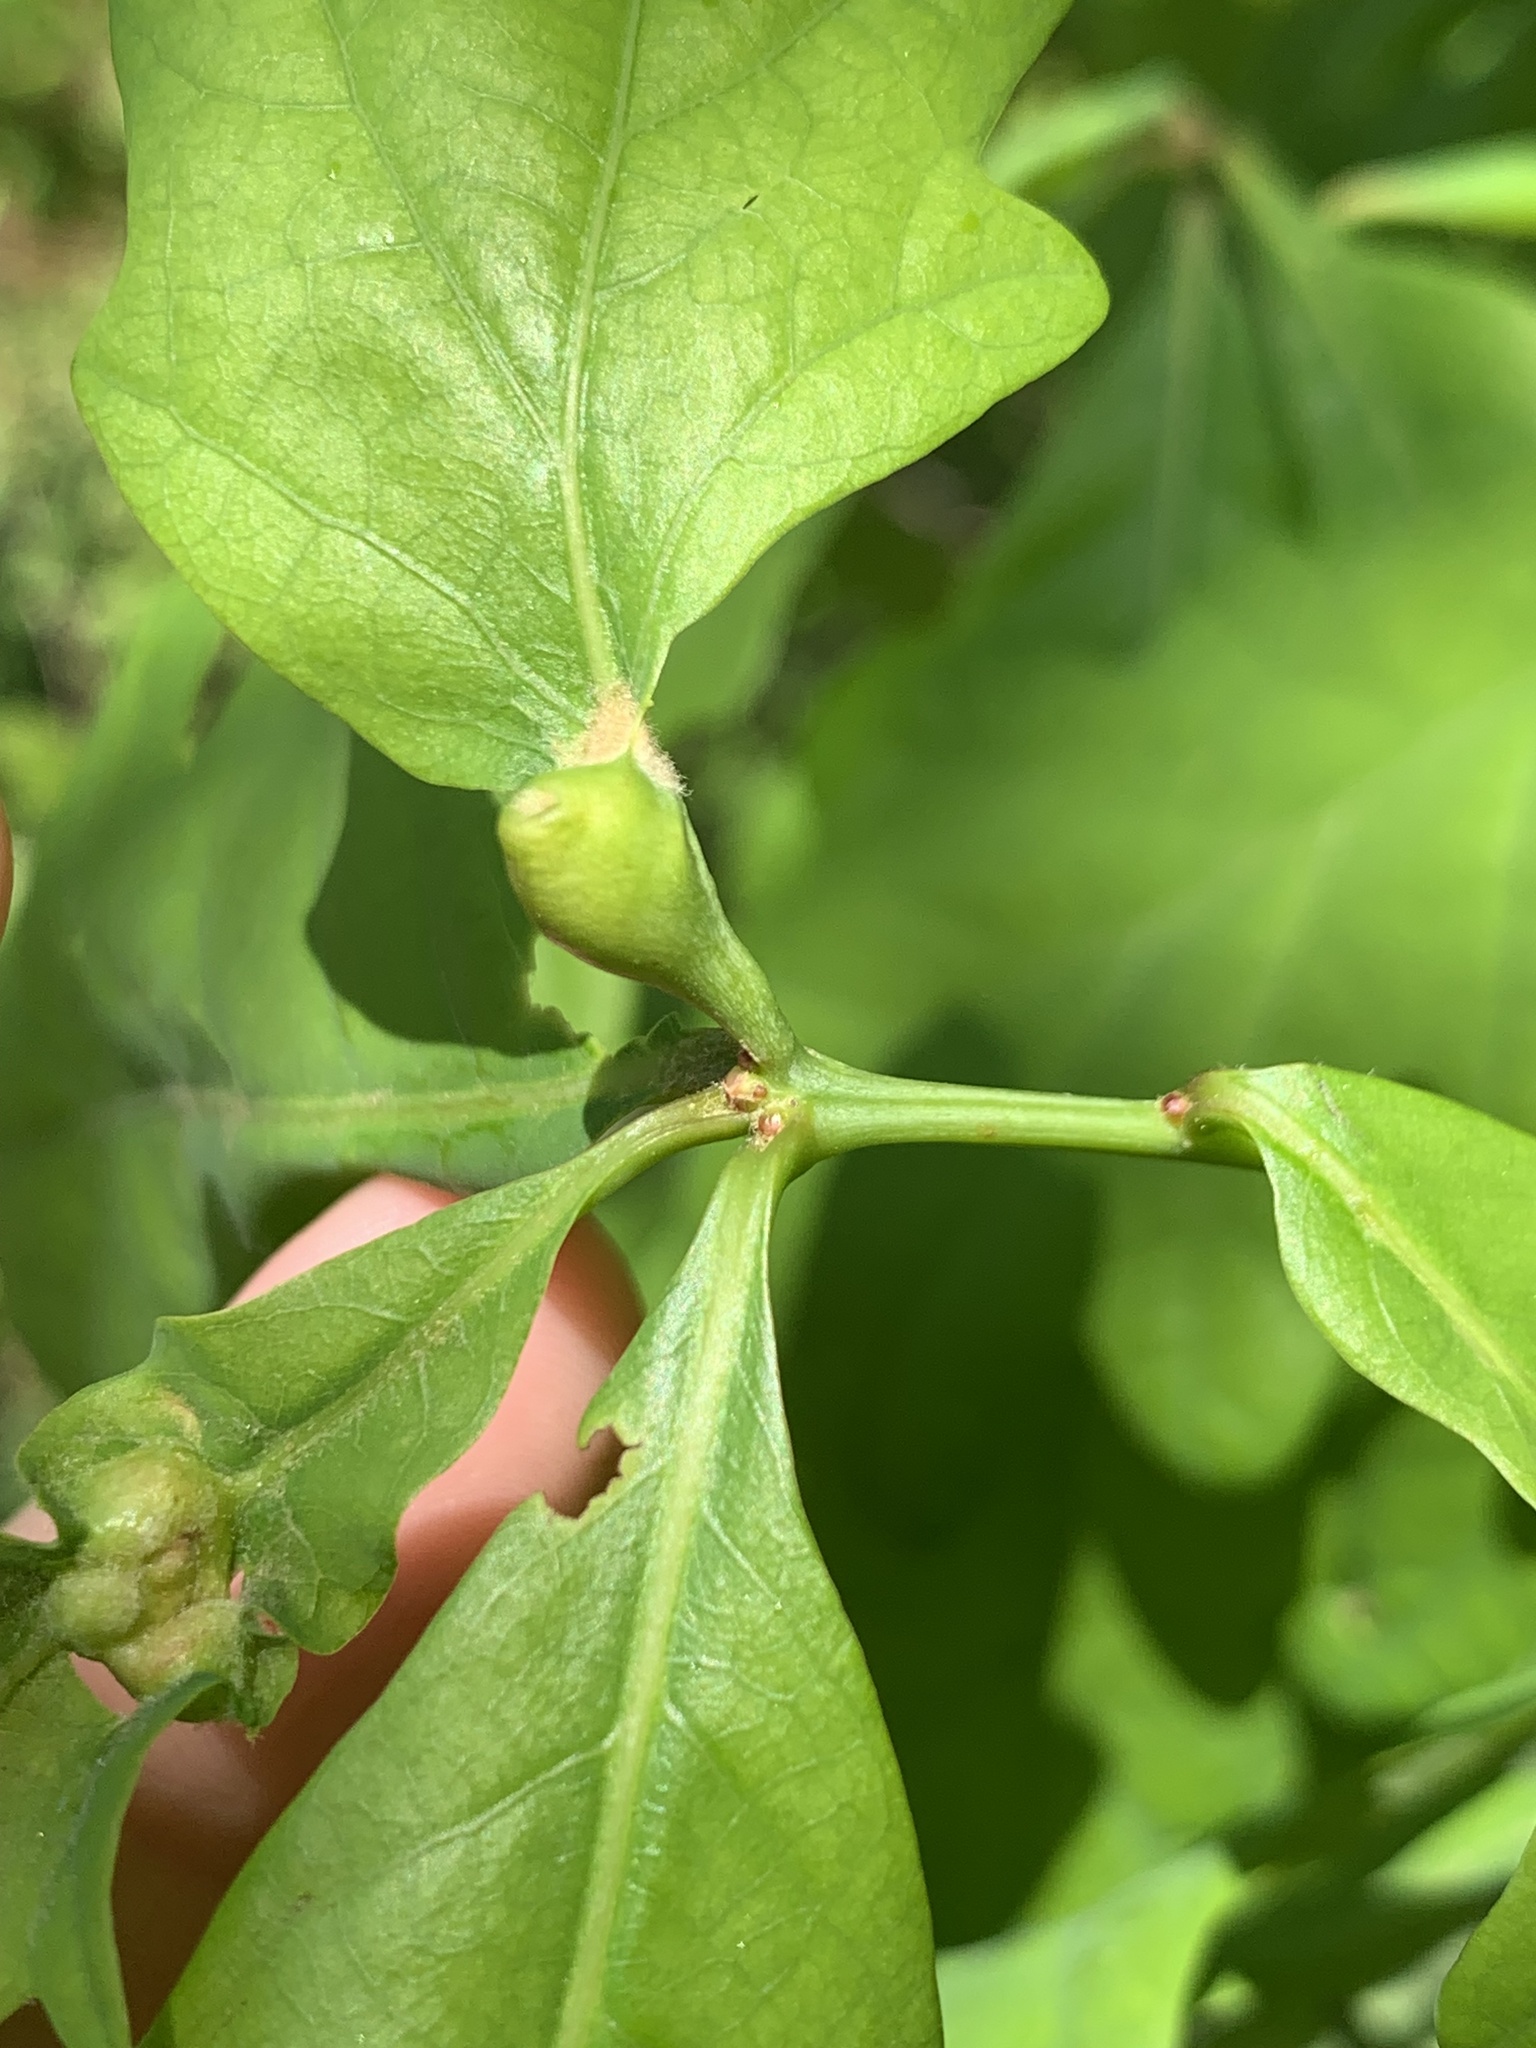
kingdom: Animalia
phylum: Arthropoda
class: Insecta
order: Hymenoptera
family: Cynipidae
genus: Andricus
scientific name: Andricus
